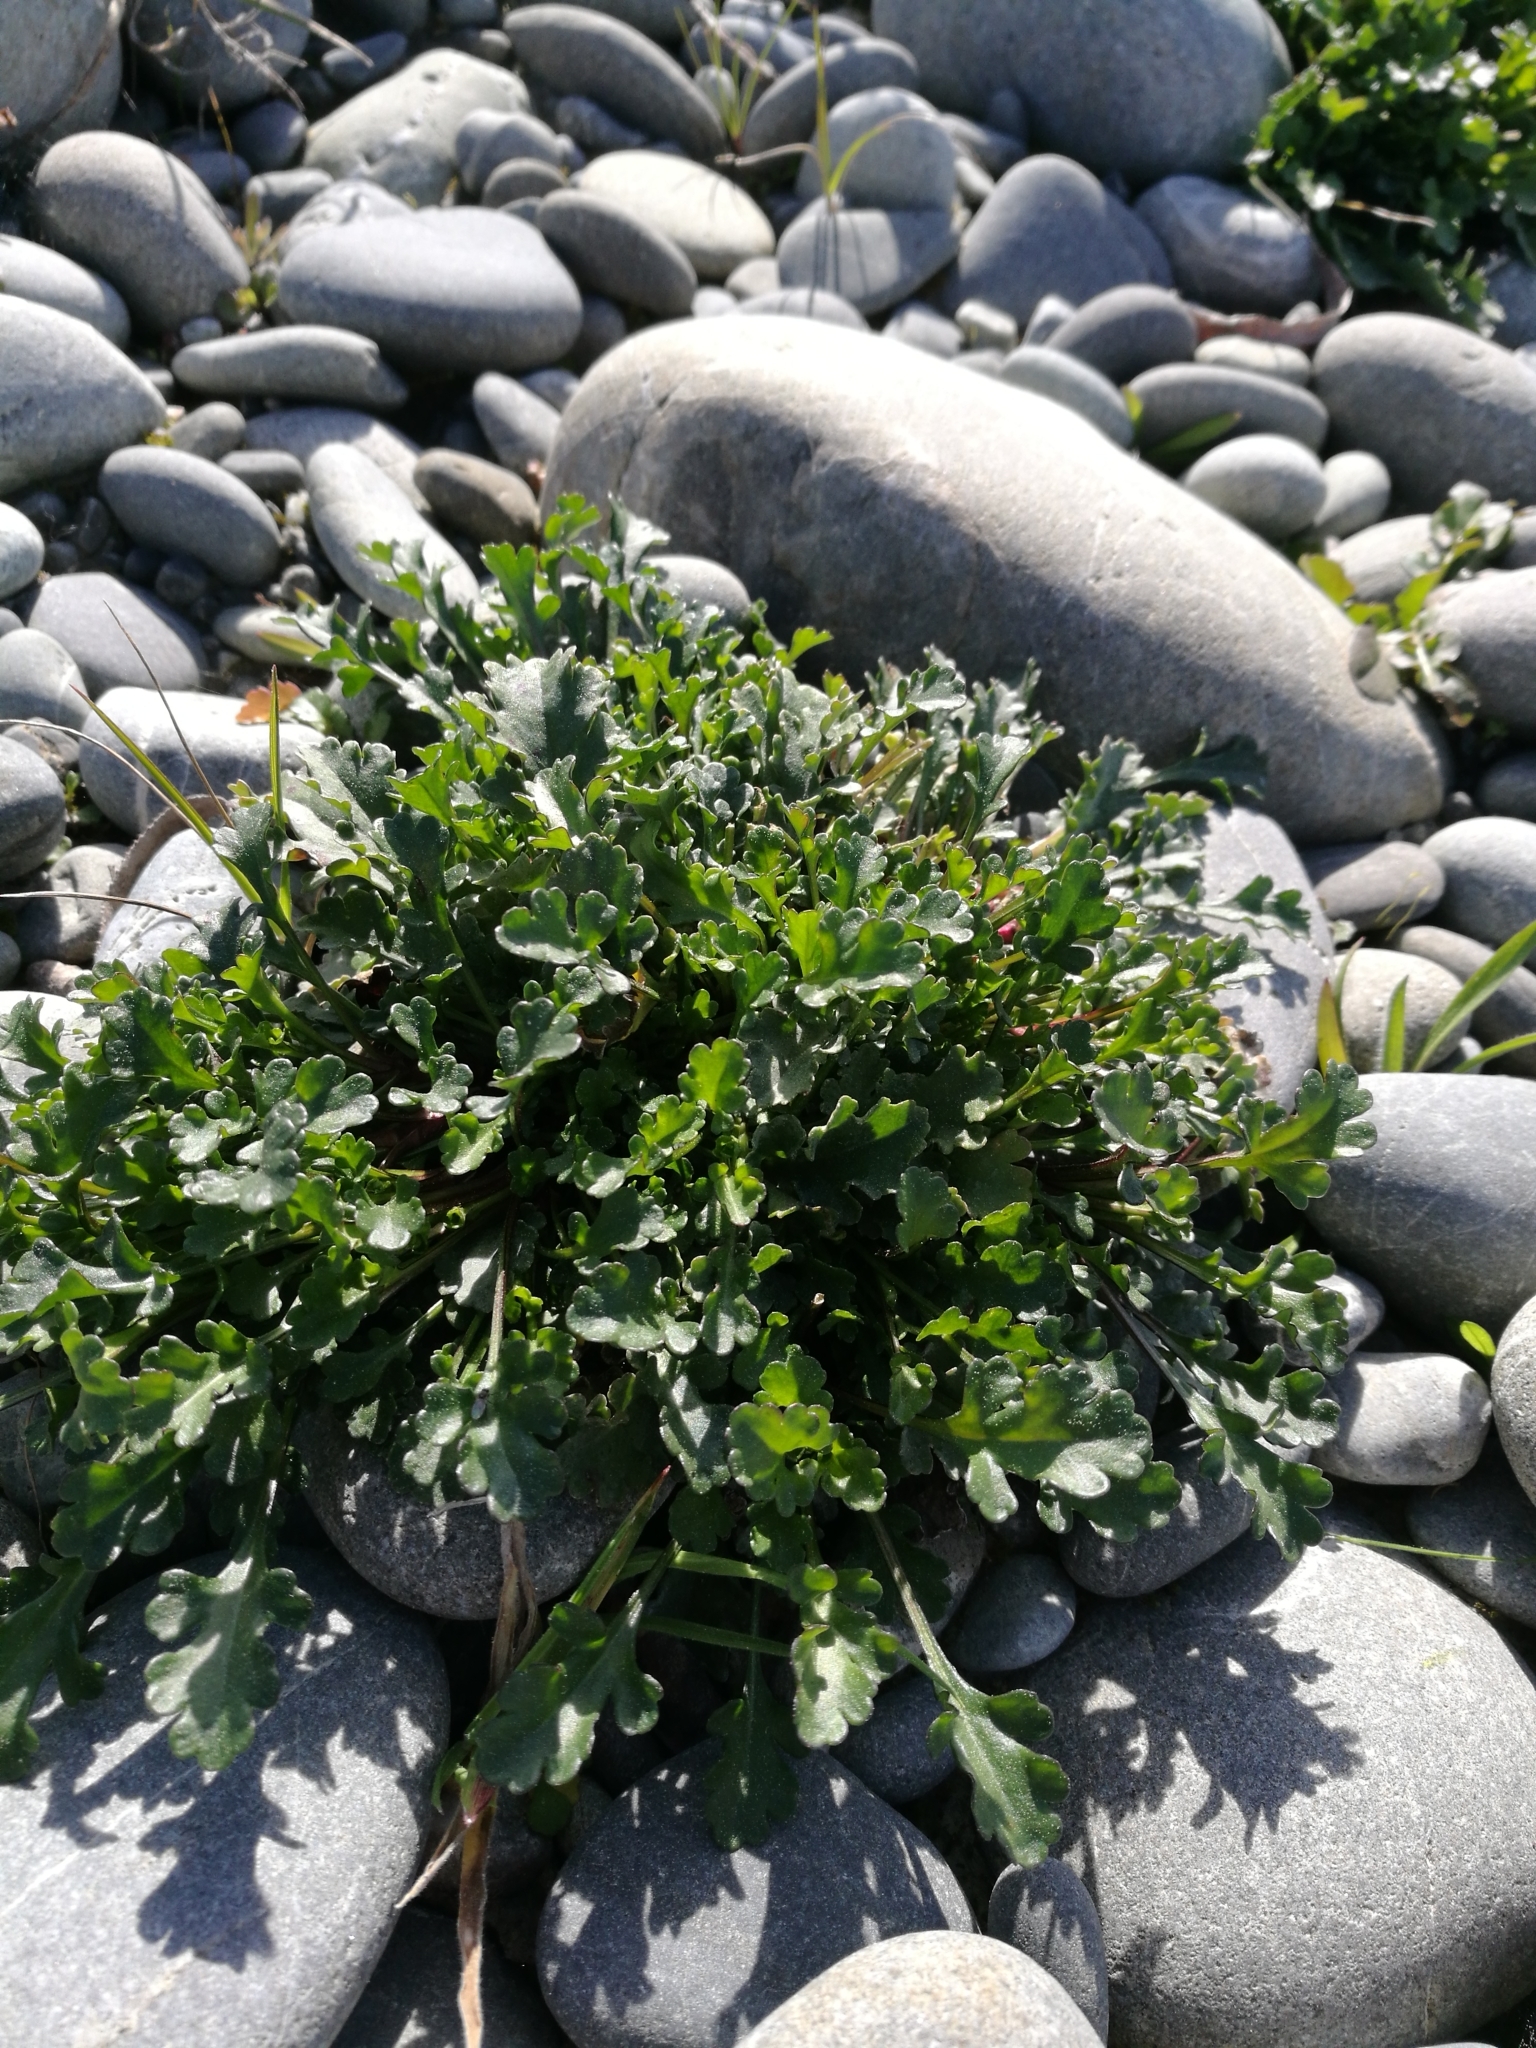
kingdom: Plantae
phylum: Tracheophyta
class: Magnoliopsida
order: Asterales
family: Asteraceae
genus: Leucanthemum
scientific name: Leucanthemum vulgare
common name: Oxeye daisy
